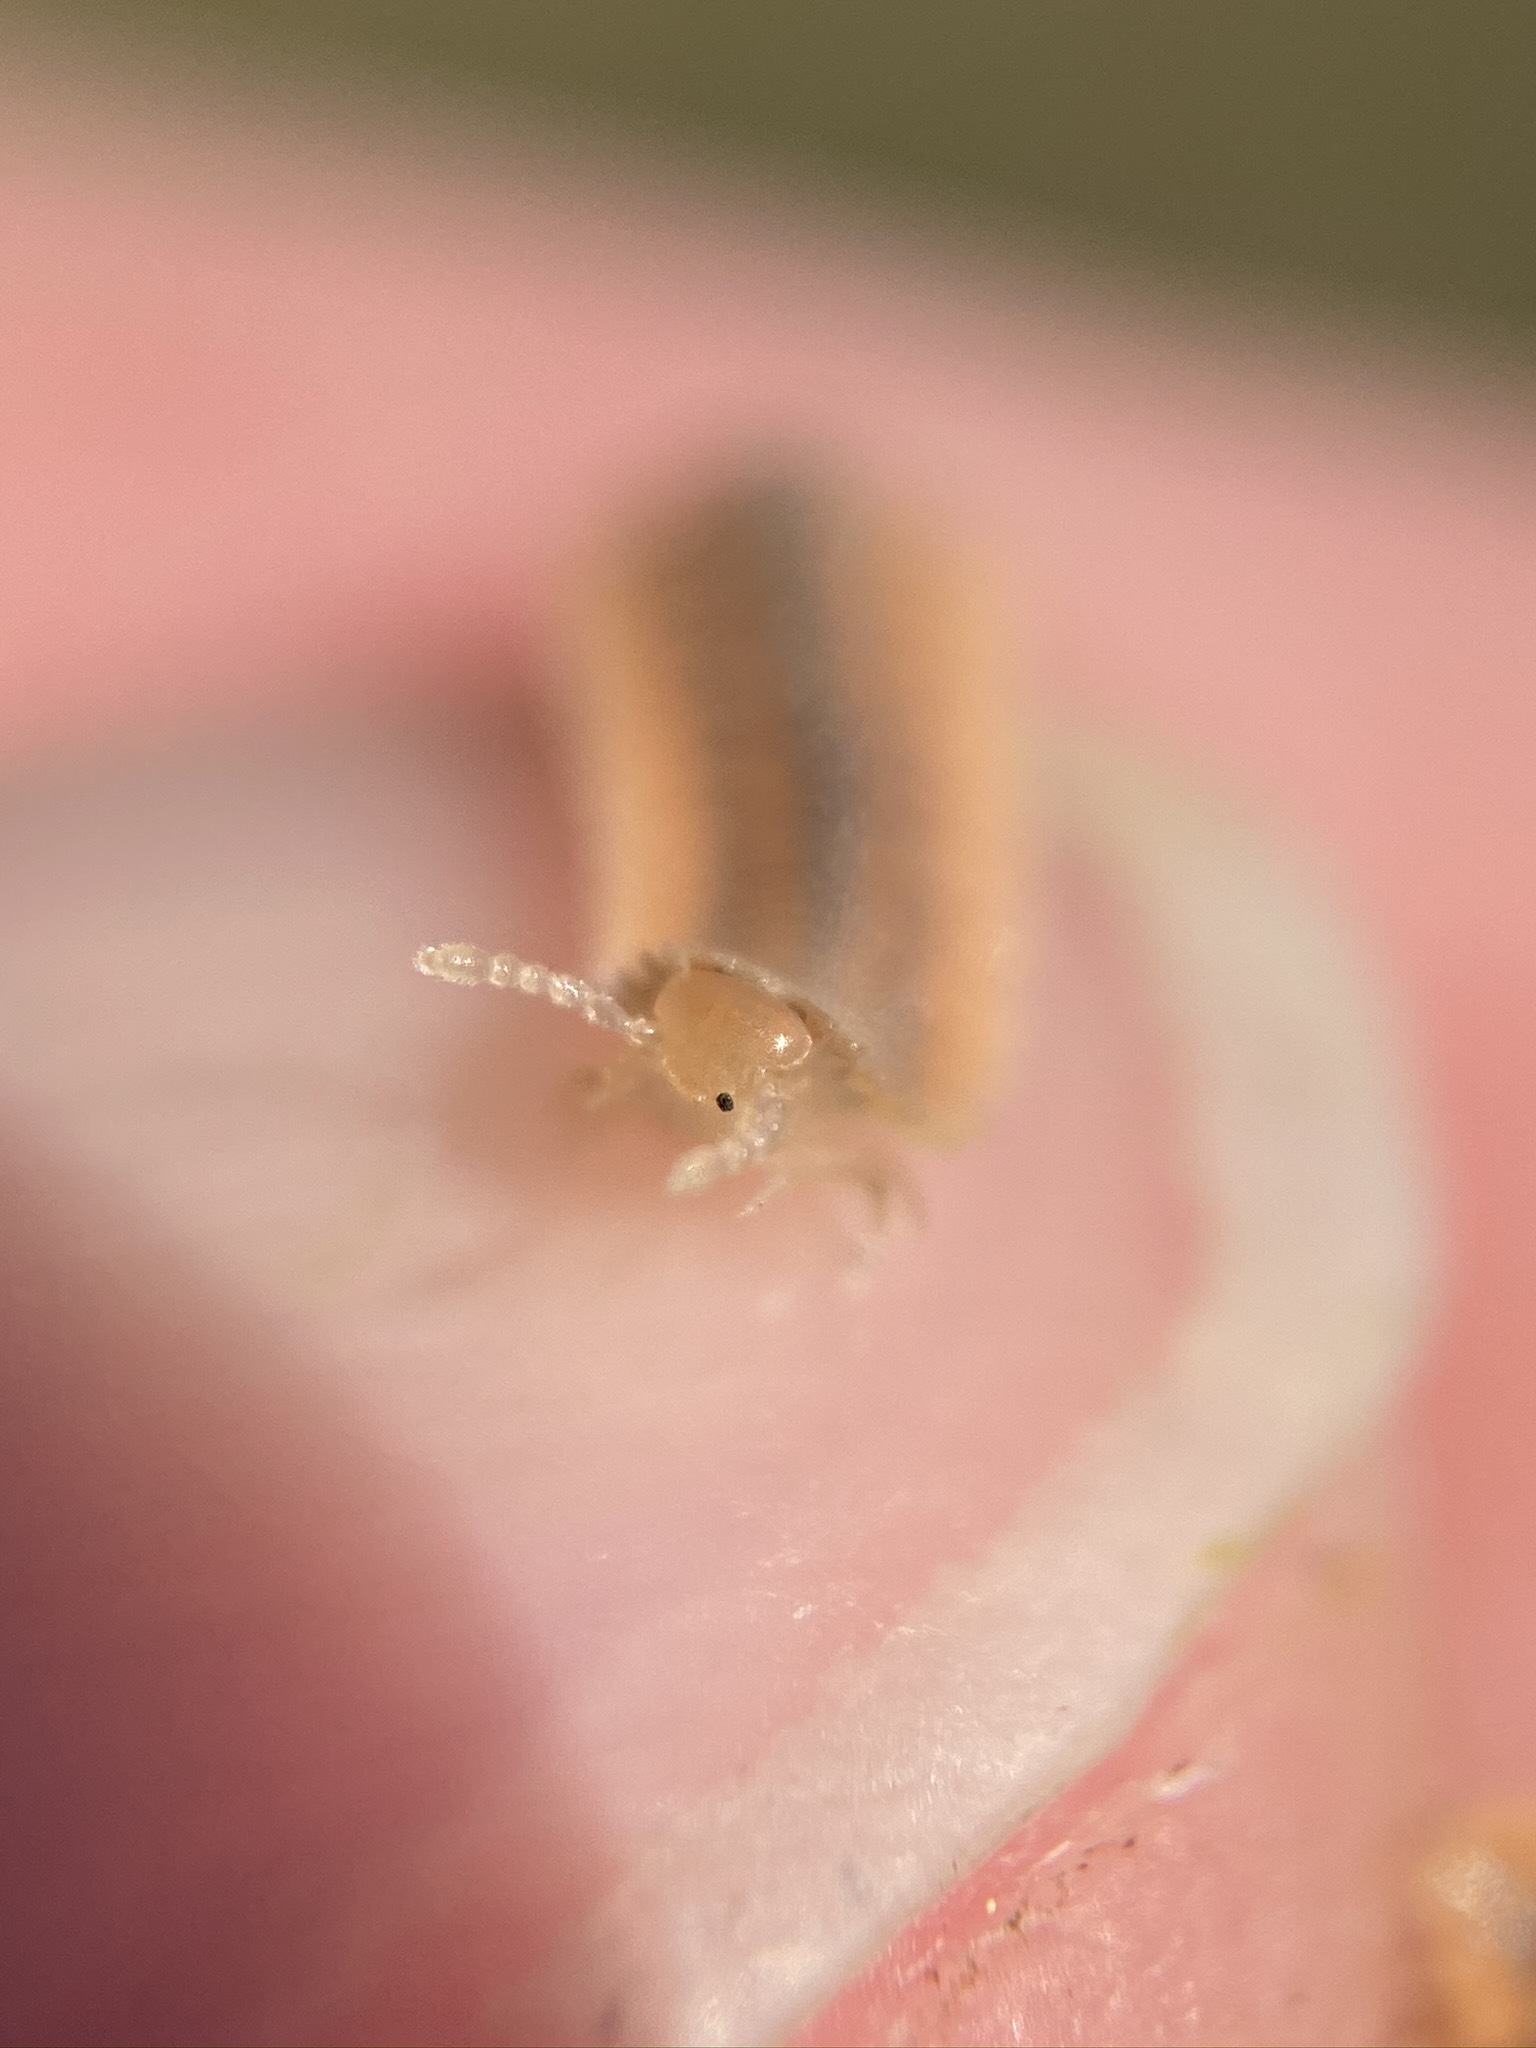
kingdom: Animalia
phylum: Arthropoda
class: Diplopoda
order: Platydesmida
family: Andrognathidae
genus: Brachycybe
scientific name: Brachycybe producta
